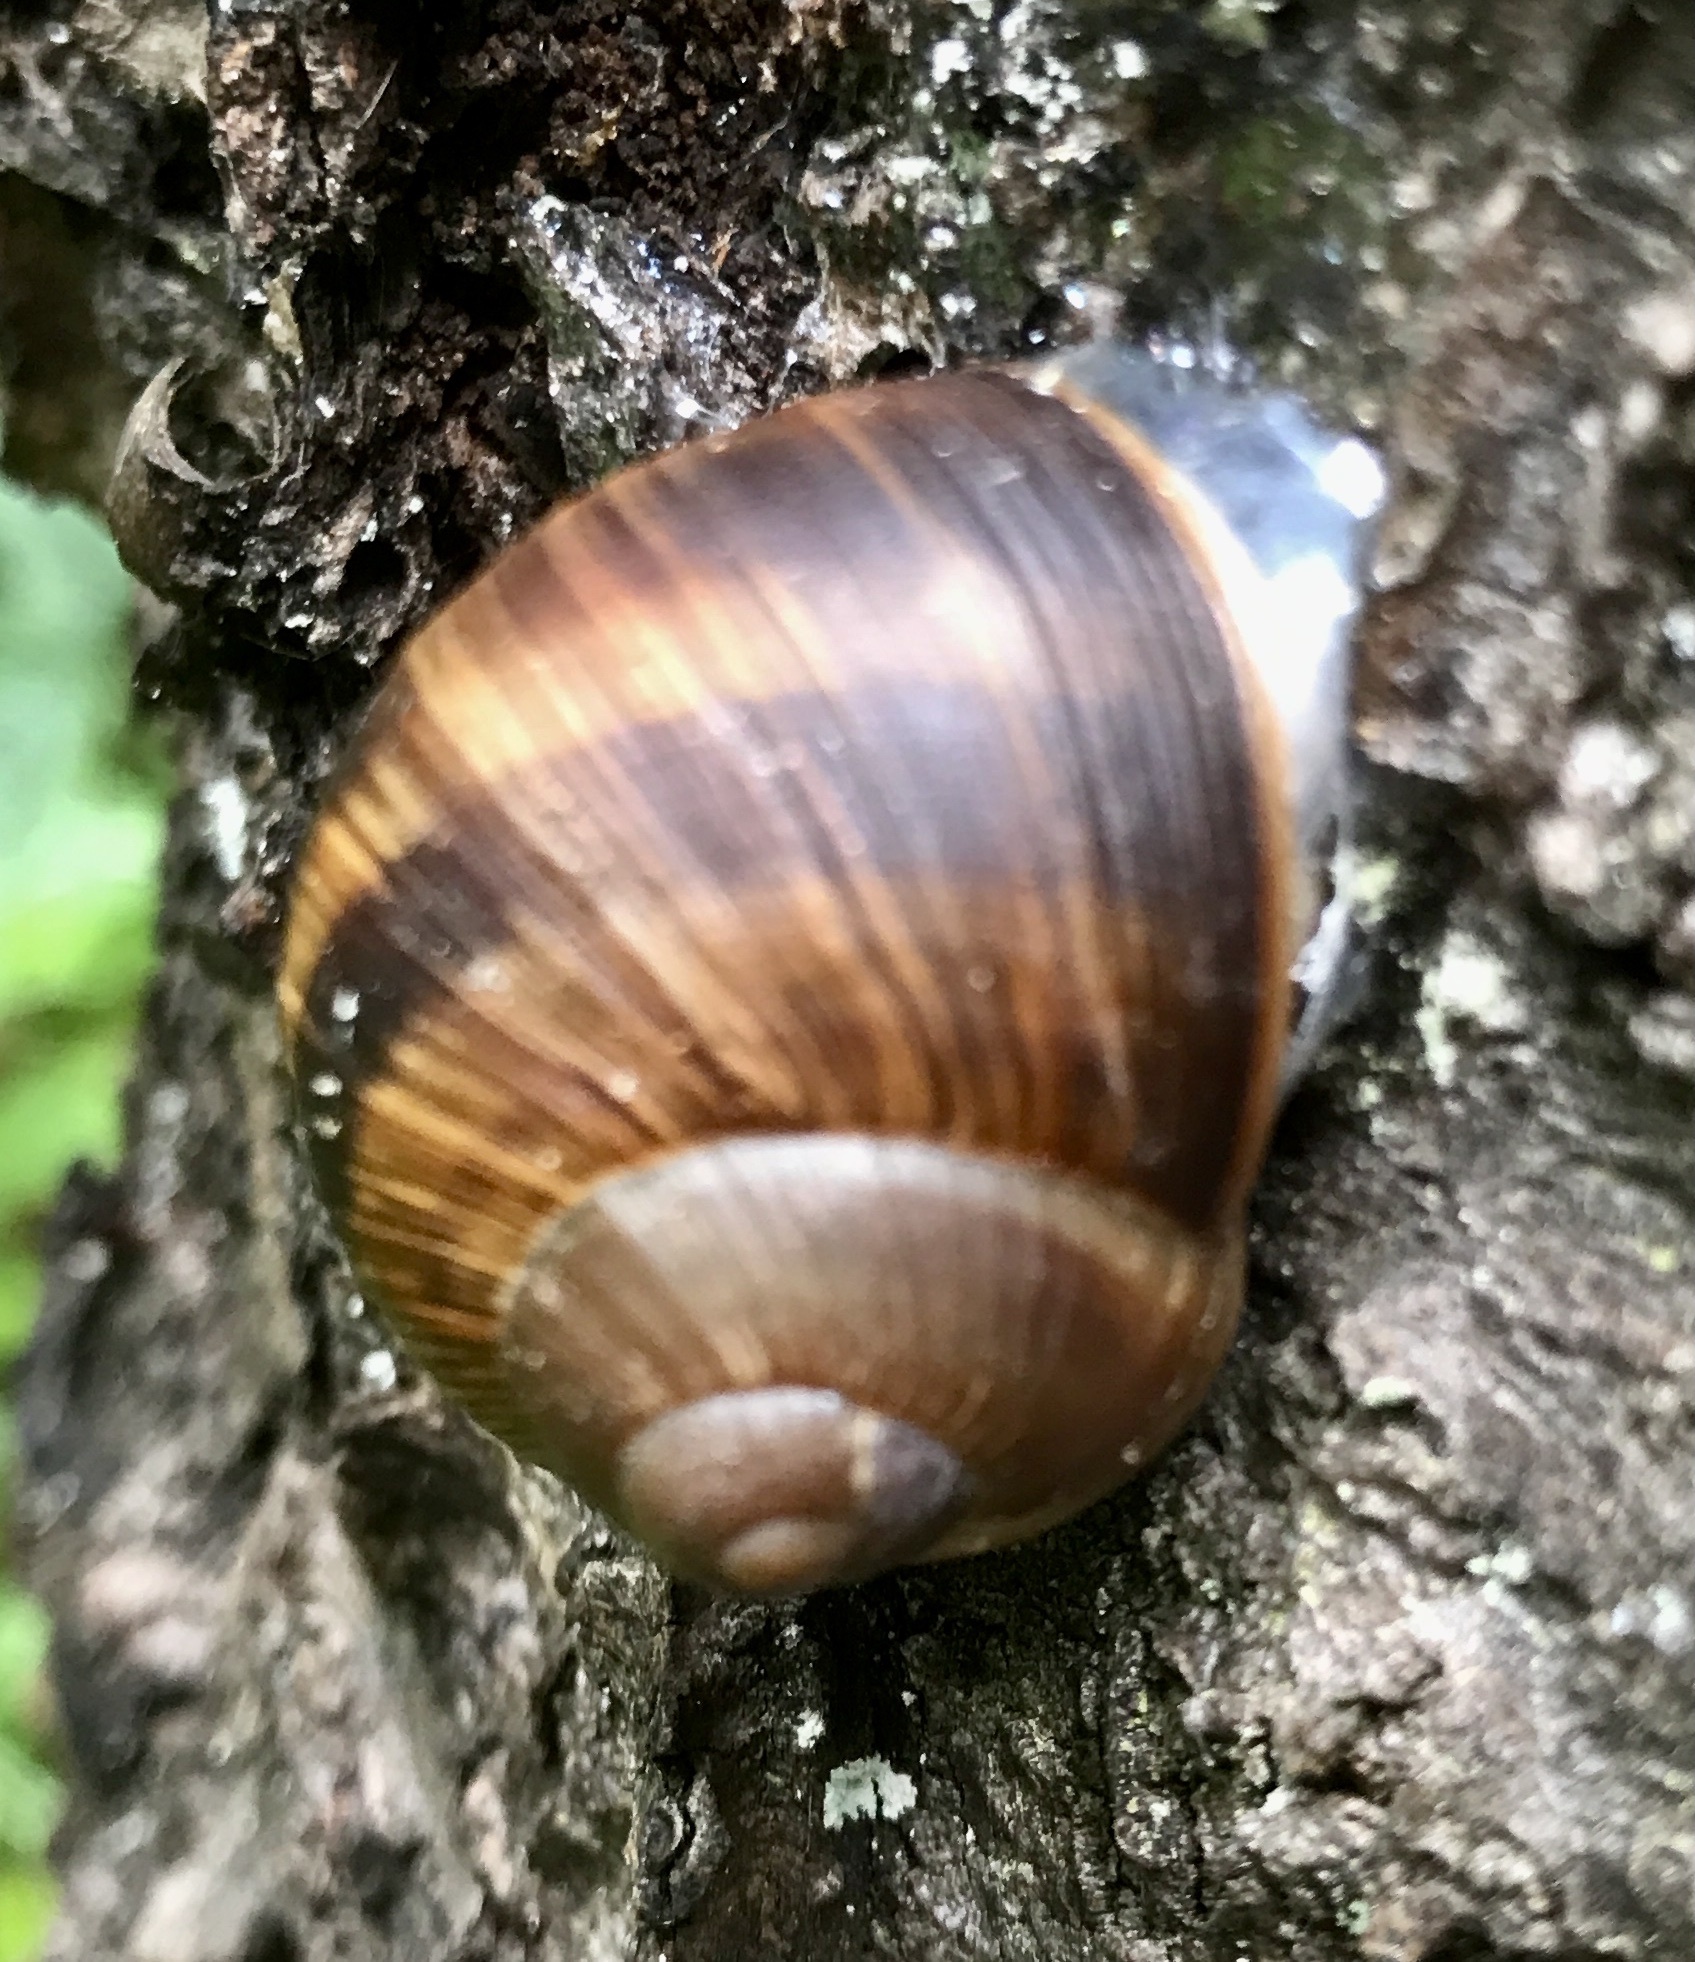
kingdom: Animalia
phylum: Mollusca
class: Gastropoda
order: Stylommatophora
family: Helicidae
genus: Helix
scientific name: Helix pomatia
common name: Roman snail
